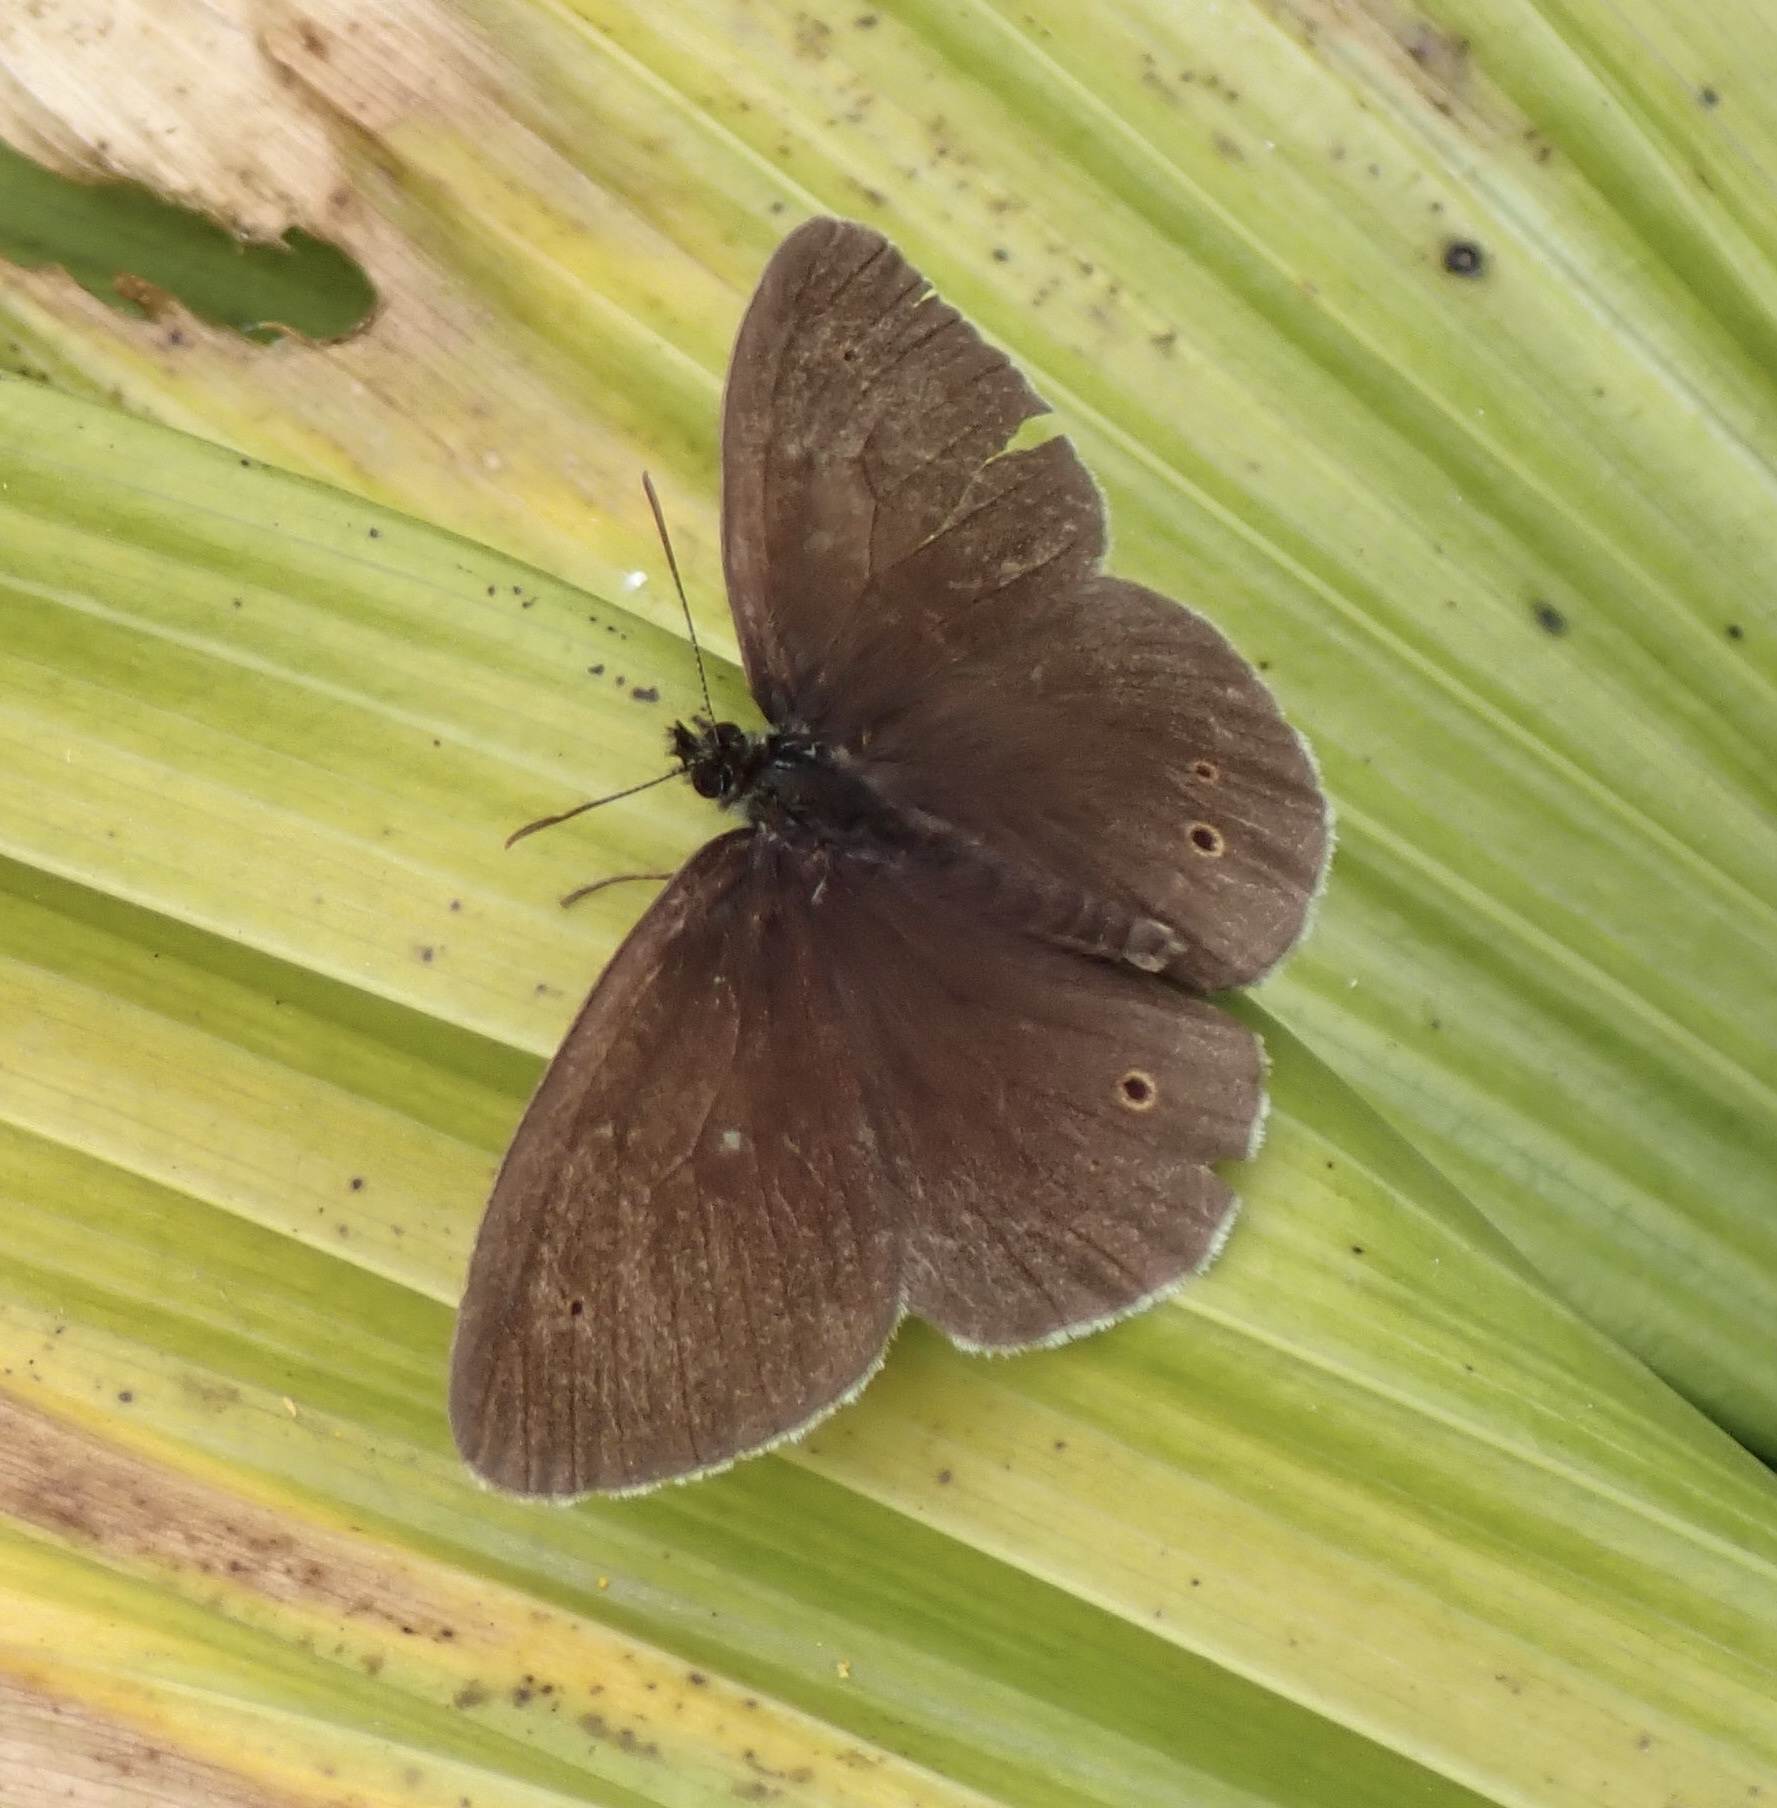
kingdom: Animalia
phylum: Arthropoda
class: Insecta
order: Lepidoptera
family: Nymphalidae
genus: Aphantopus
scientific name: Aphantopus hyperantus
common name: Ringlet
